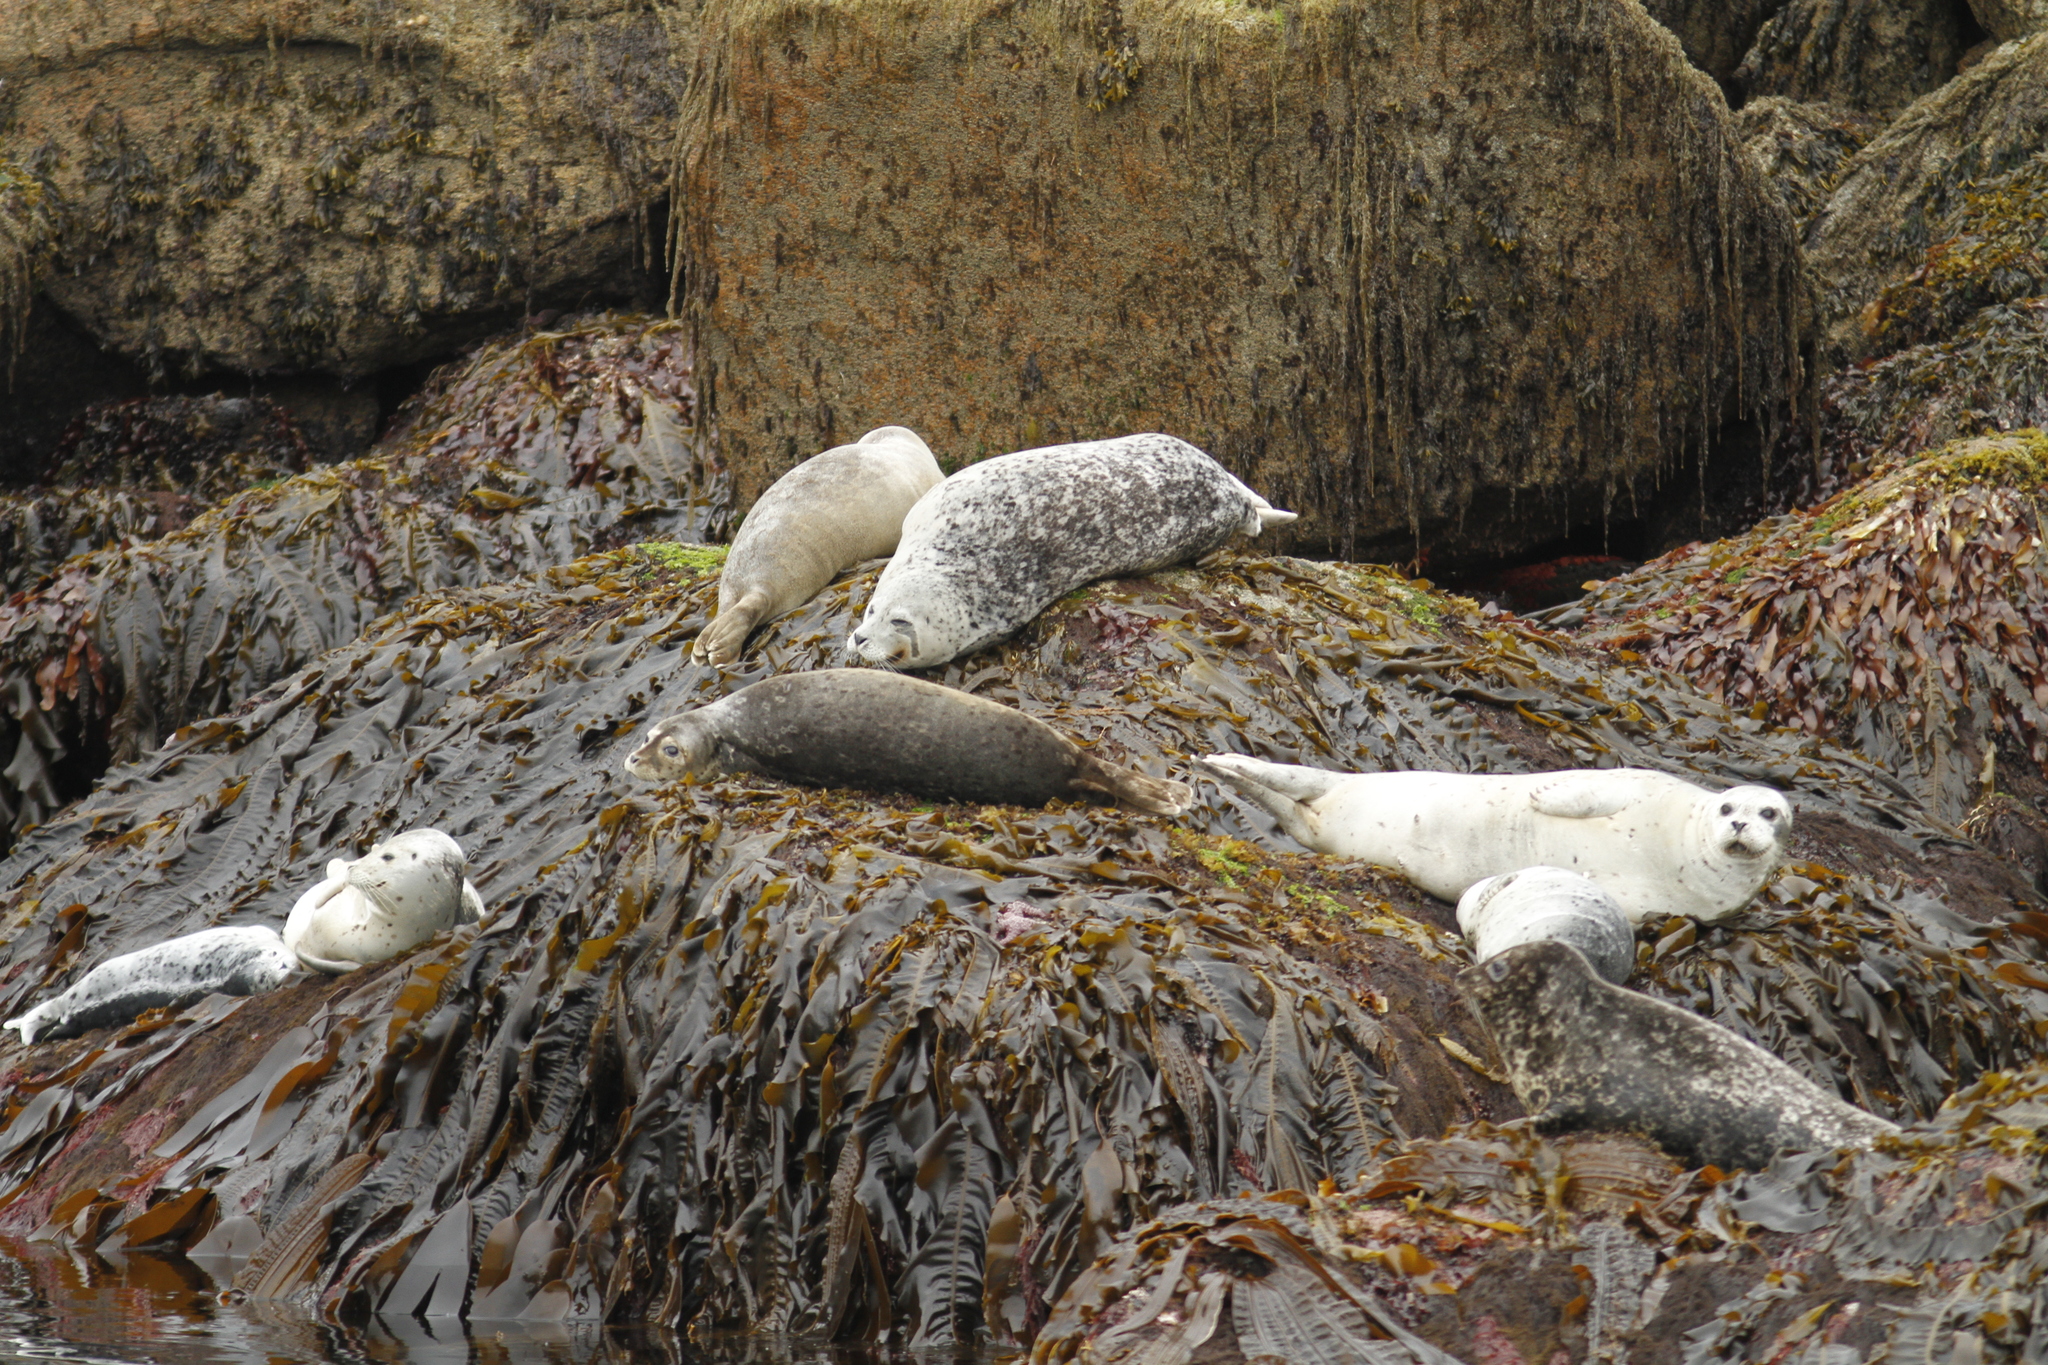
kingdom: Animalia
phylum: Chordata
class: Mammalia
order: Carnivora
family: Phocidae
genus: Phoca
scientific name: Phoca vitulina
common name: Harbor seal
